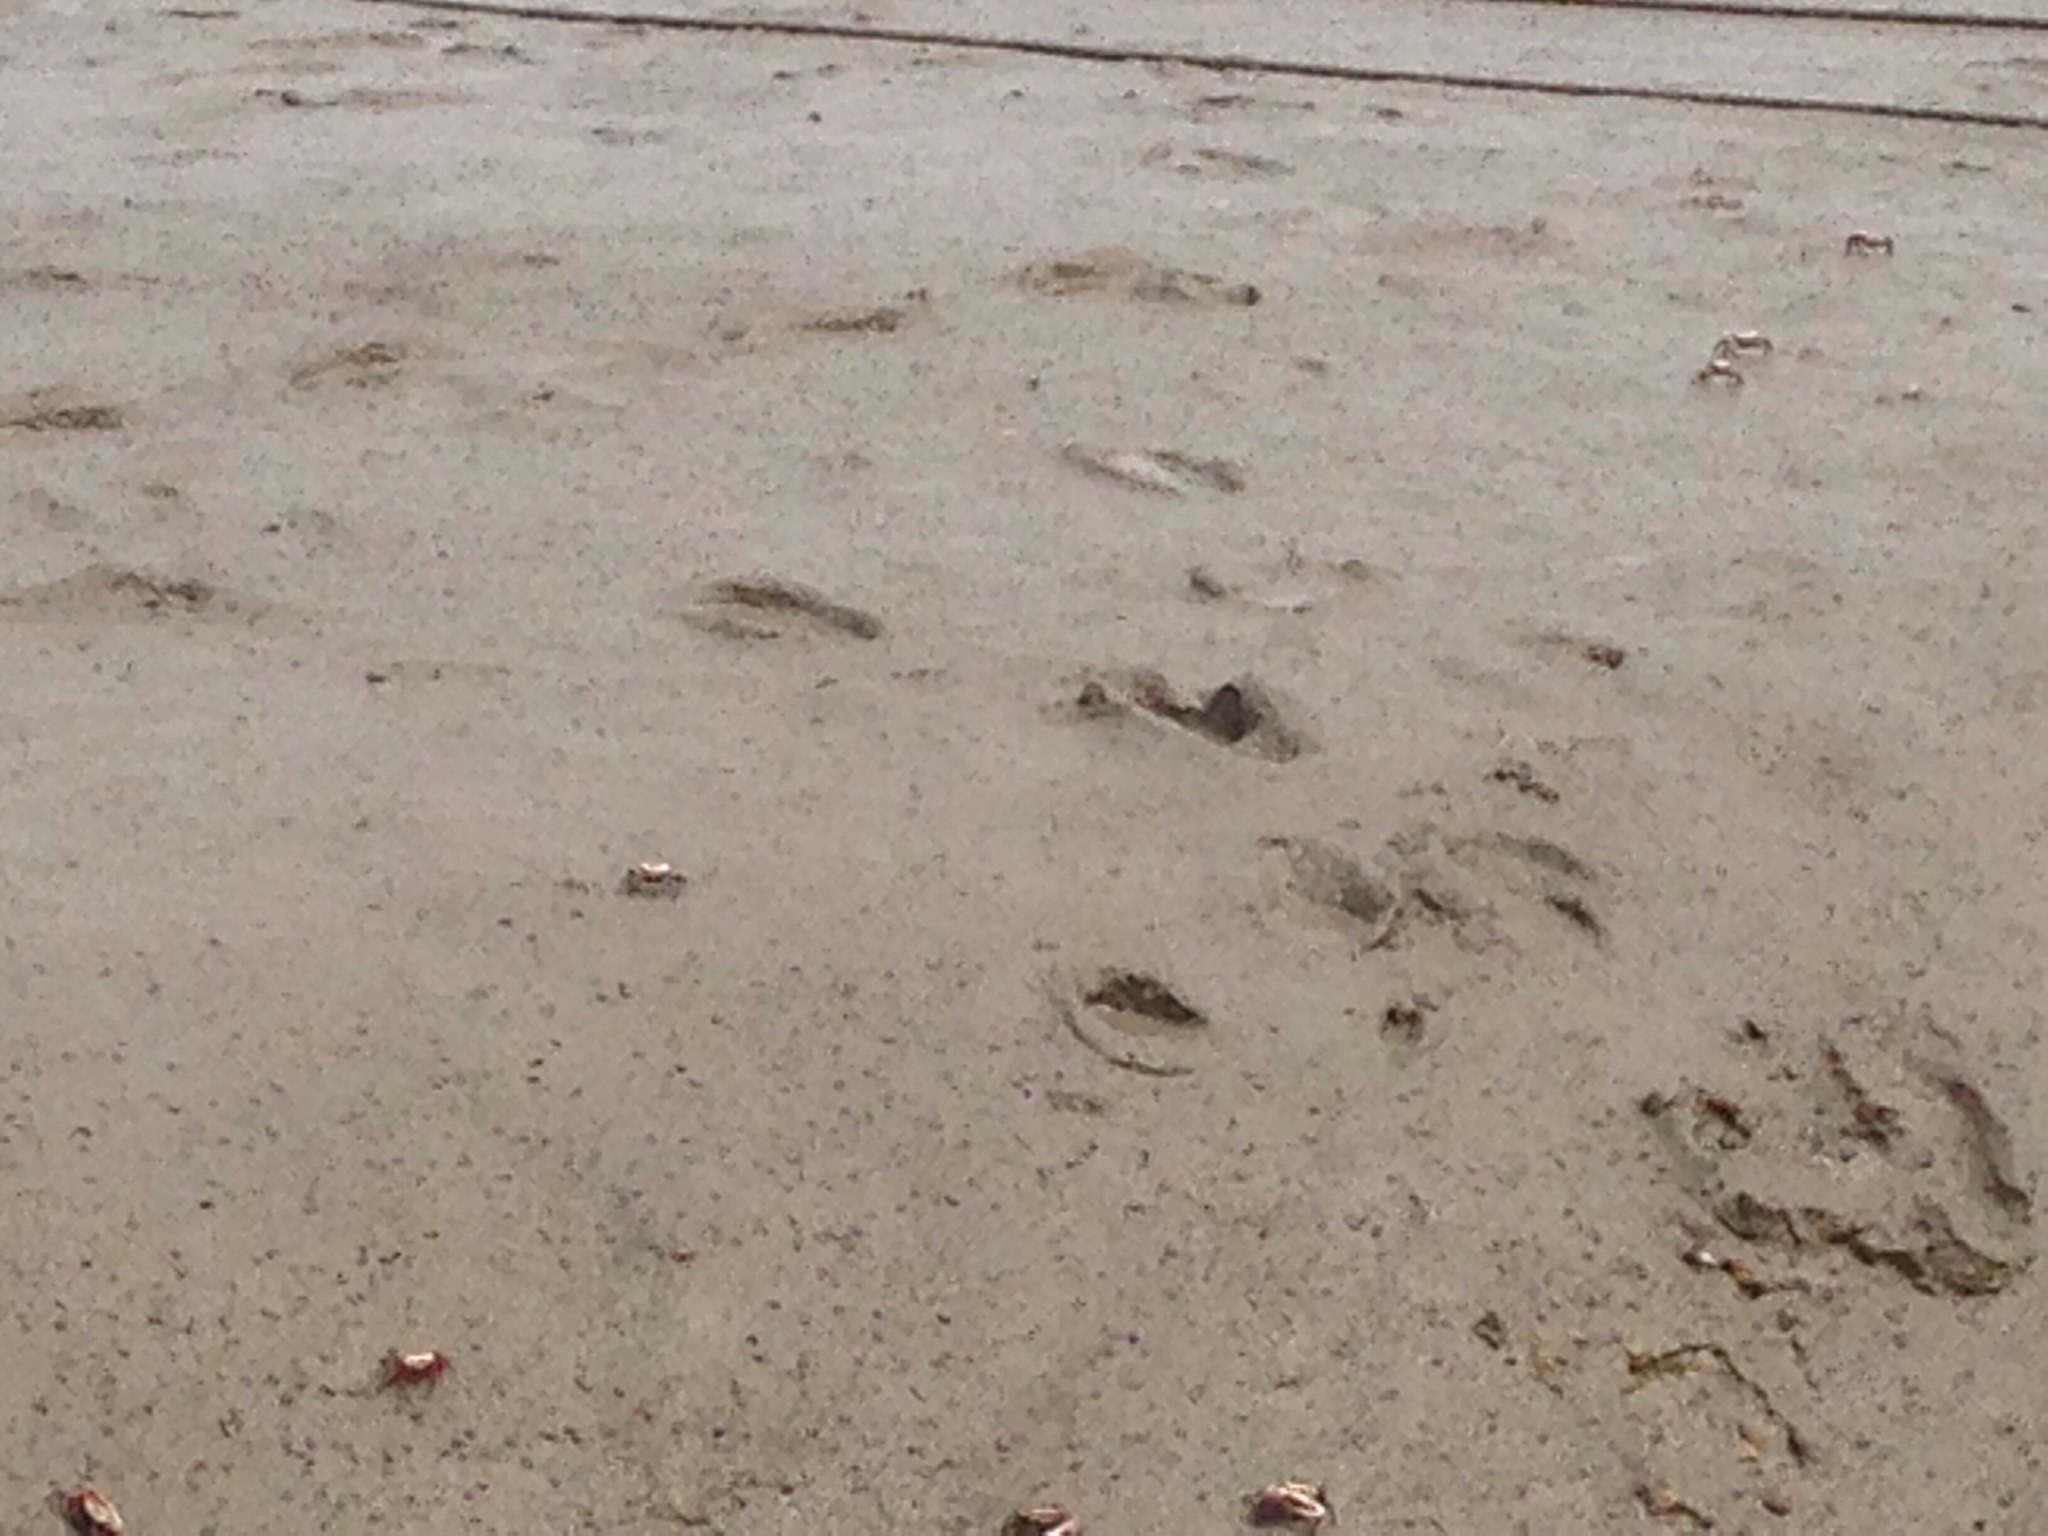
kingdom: Animalia
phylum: Arthropoda
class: Malacostraca
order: Decapoda
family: Ocypodidae
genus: Tubuca
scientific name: Tubuca arcuata
